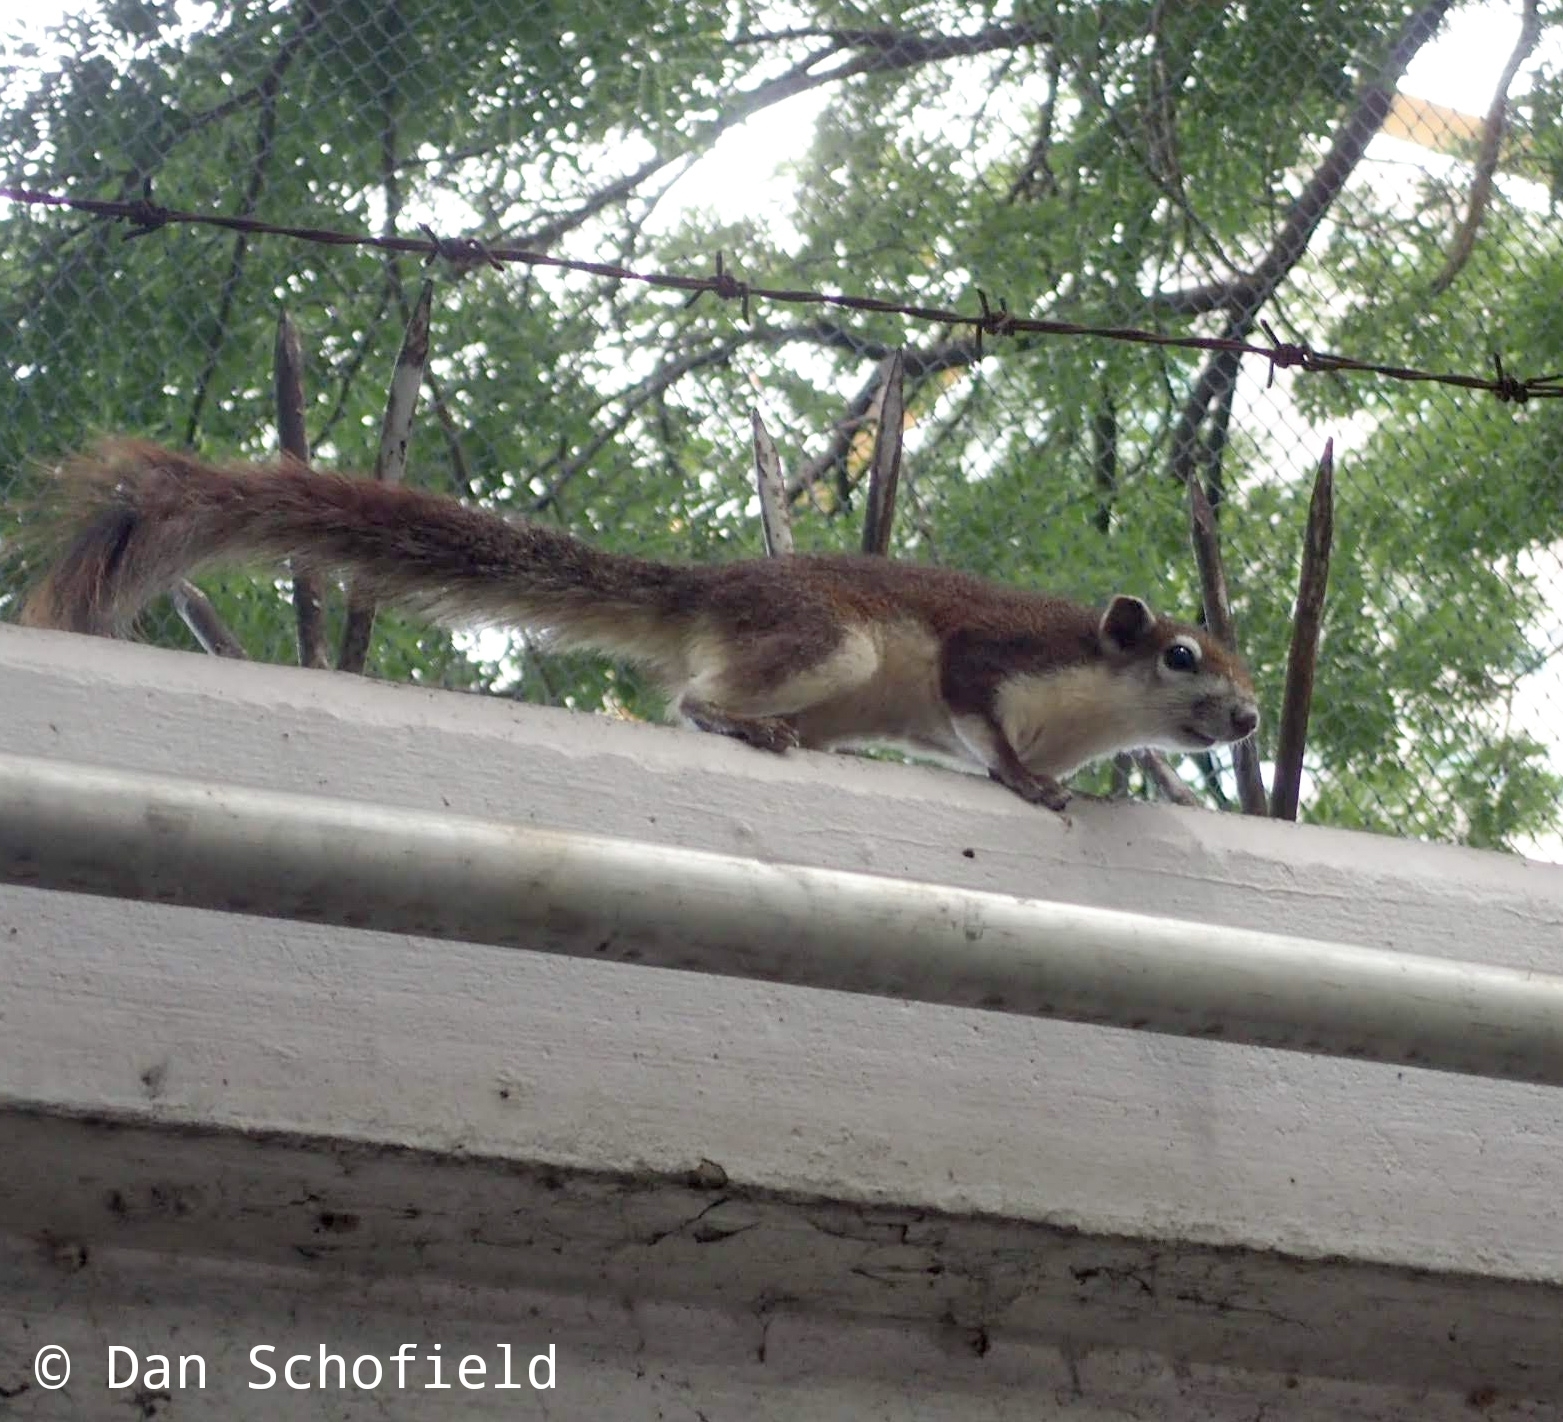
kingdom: Animalia
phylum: Chordata
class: Mammalia
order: Rodentia
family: Sciuridae
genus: Callosciurus
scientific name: Callosciurus finlaysonii
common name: Finlayson's squirrel
